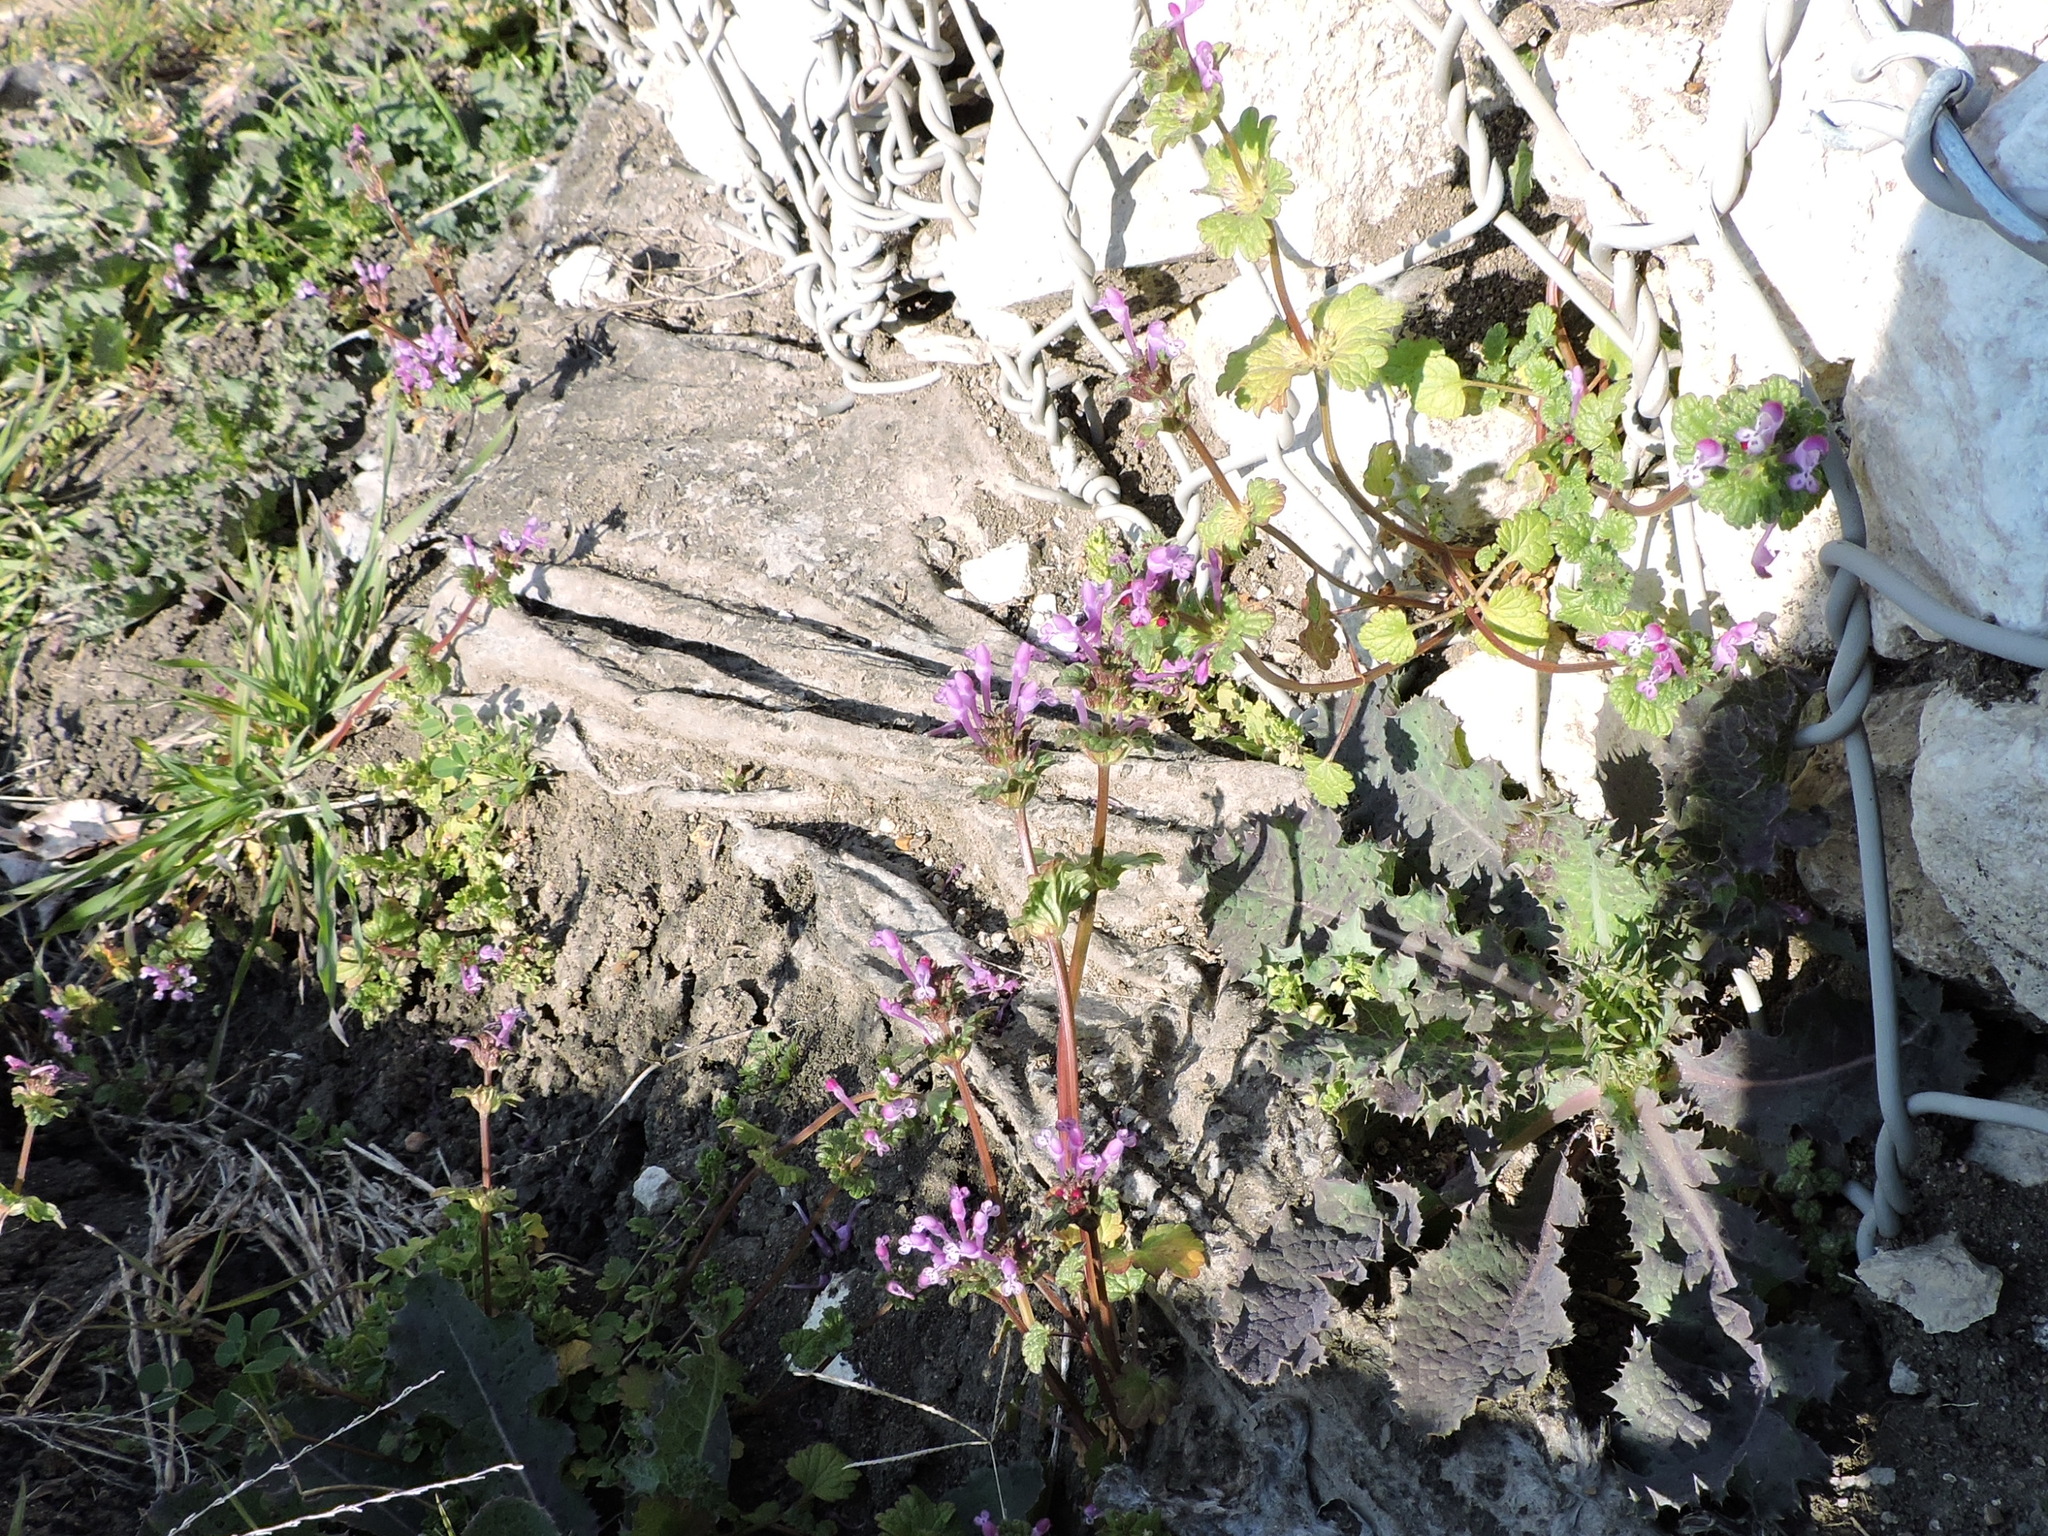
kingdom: Plantae
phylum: Tracheophyta
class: Magnoliopsida
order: Lamiales
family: Lamiaceae
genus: Lamium
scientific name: Lamium amplexicaule
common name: Henbit dead-nettle
